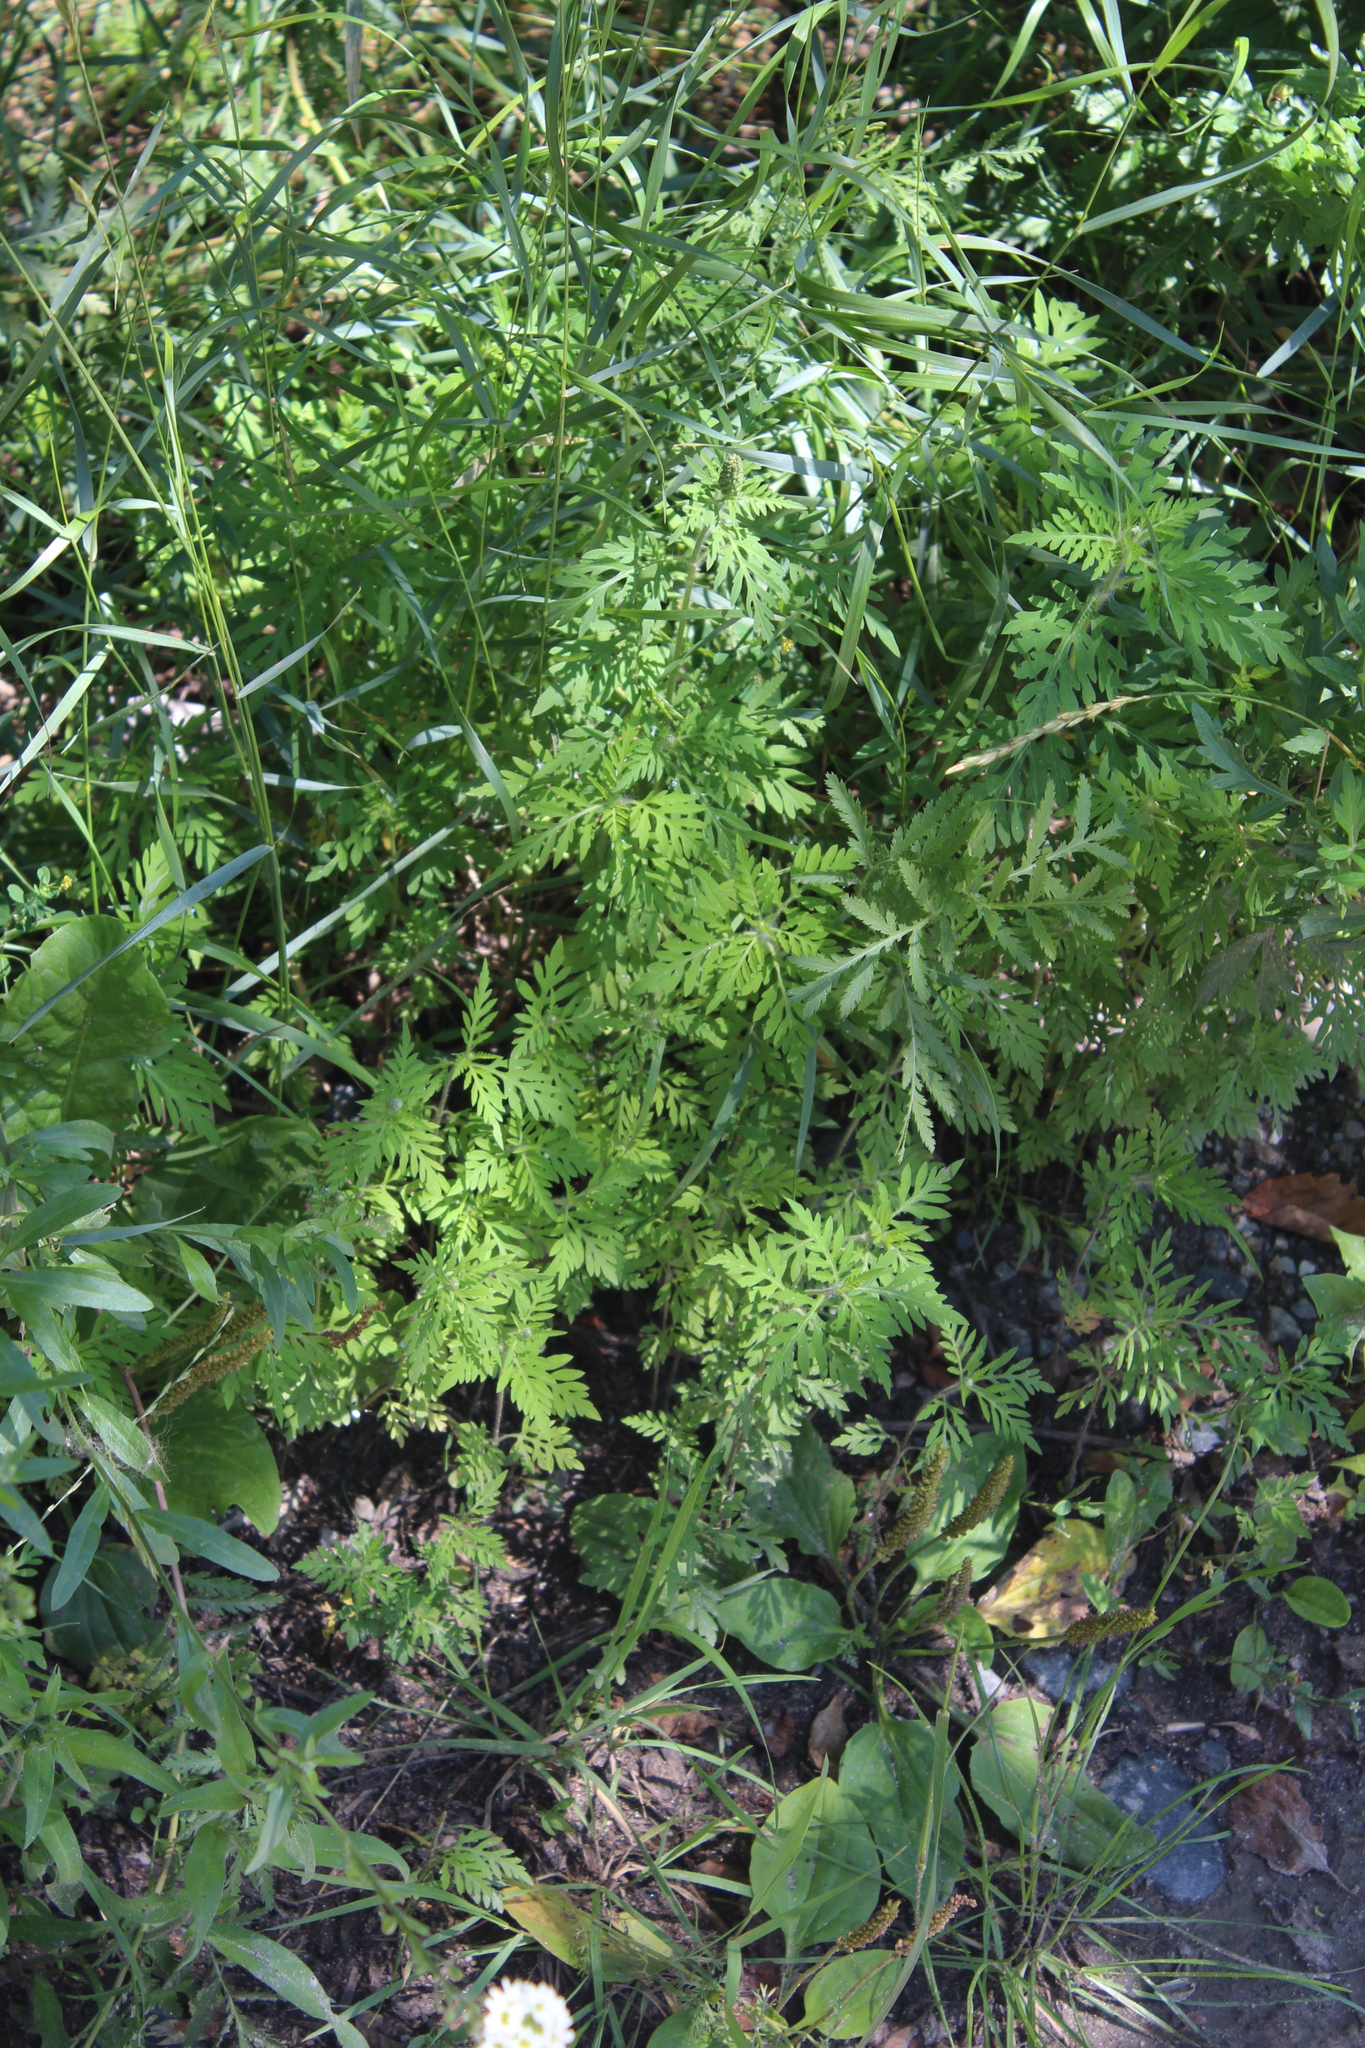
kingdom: Plantae
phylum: Tracheophyta
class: Magnoliopsida
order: Asterales
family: Asteraceae
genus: Ambrosia
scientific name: Ambrosia artemisiifolia
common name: Annual ragweed
